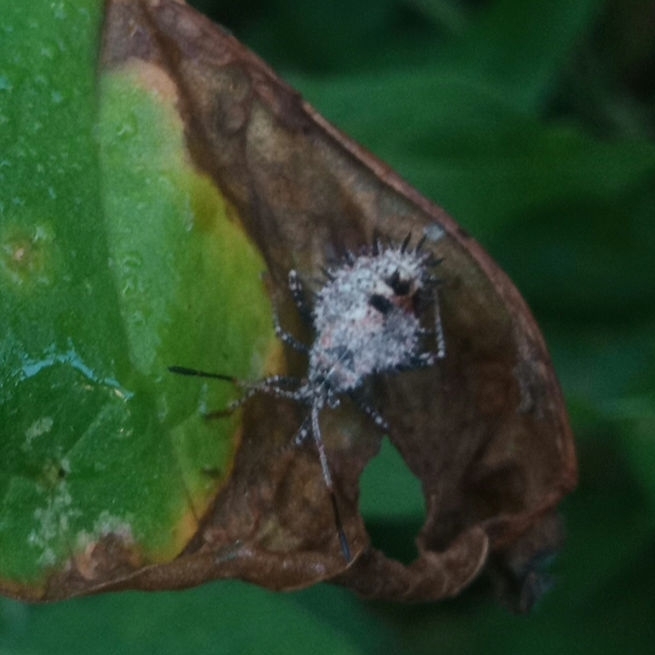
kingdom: Animalia
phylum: Arthropoda
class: Insecta
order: Hemiptera
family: Coreidae
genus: Euthochtha
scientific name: Euthochtha galeator
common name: Helmeted squash bug
